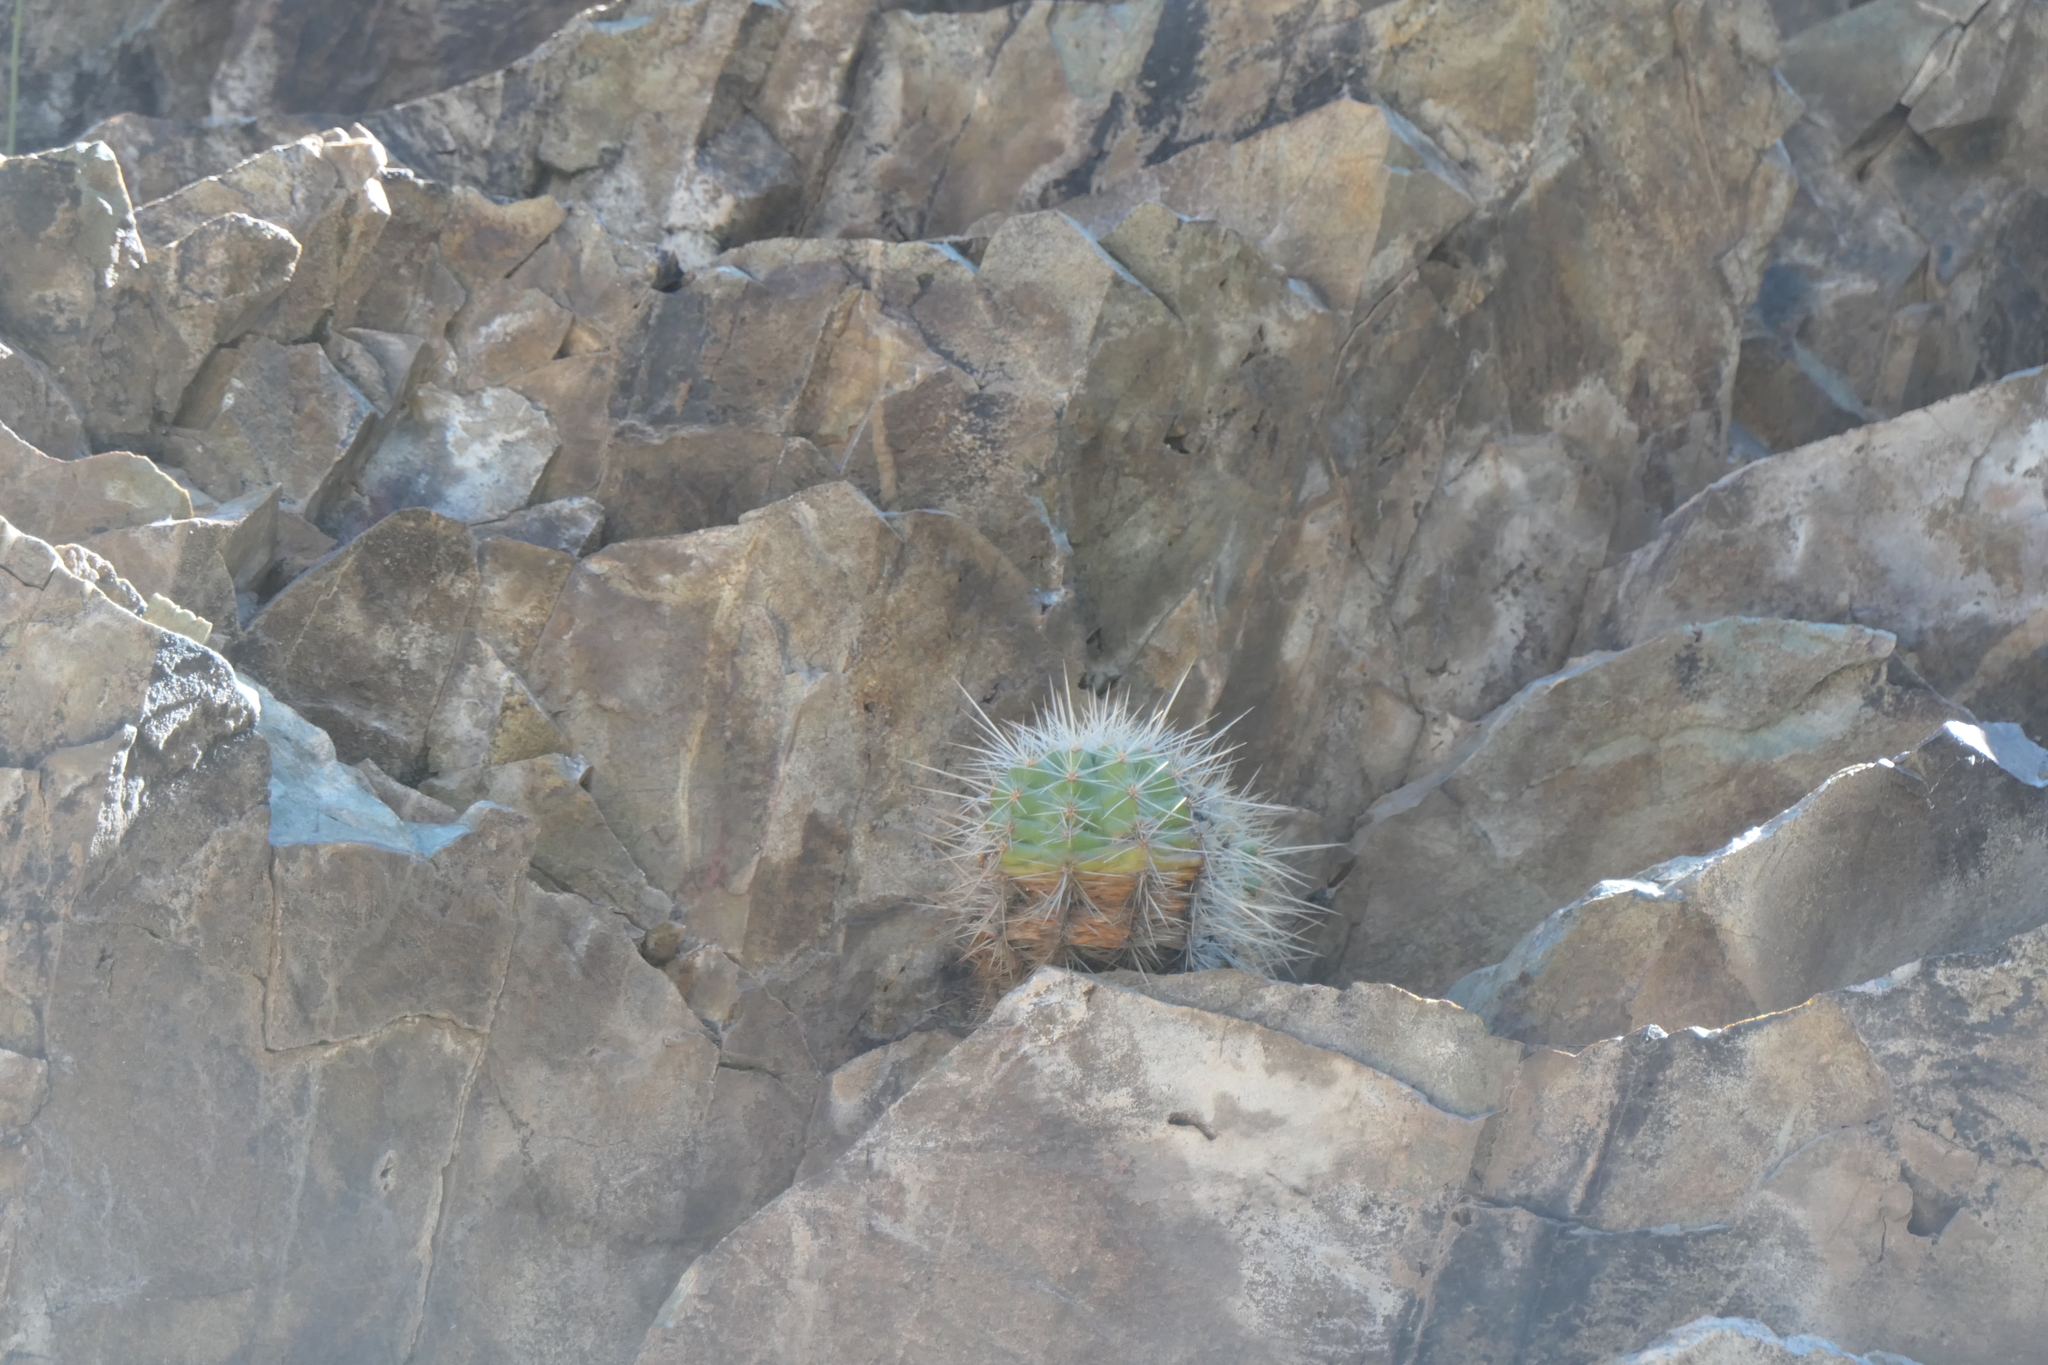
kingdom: Plantae
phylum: Tracheophyta
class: Magnoliopsida
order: Caryophyllales
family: Cactaceae
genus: Echinocereus
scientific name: Echinocereus coccineus
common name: Scarlet hedgehog cactus
